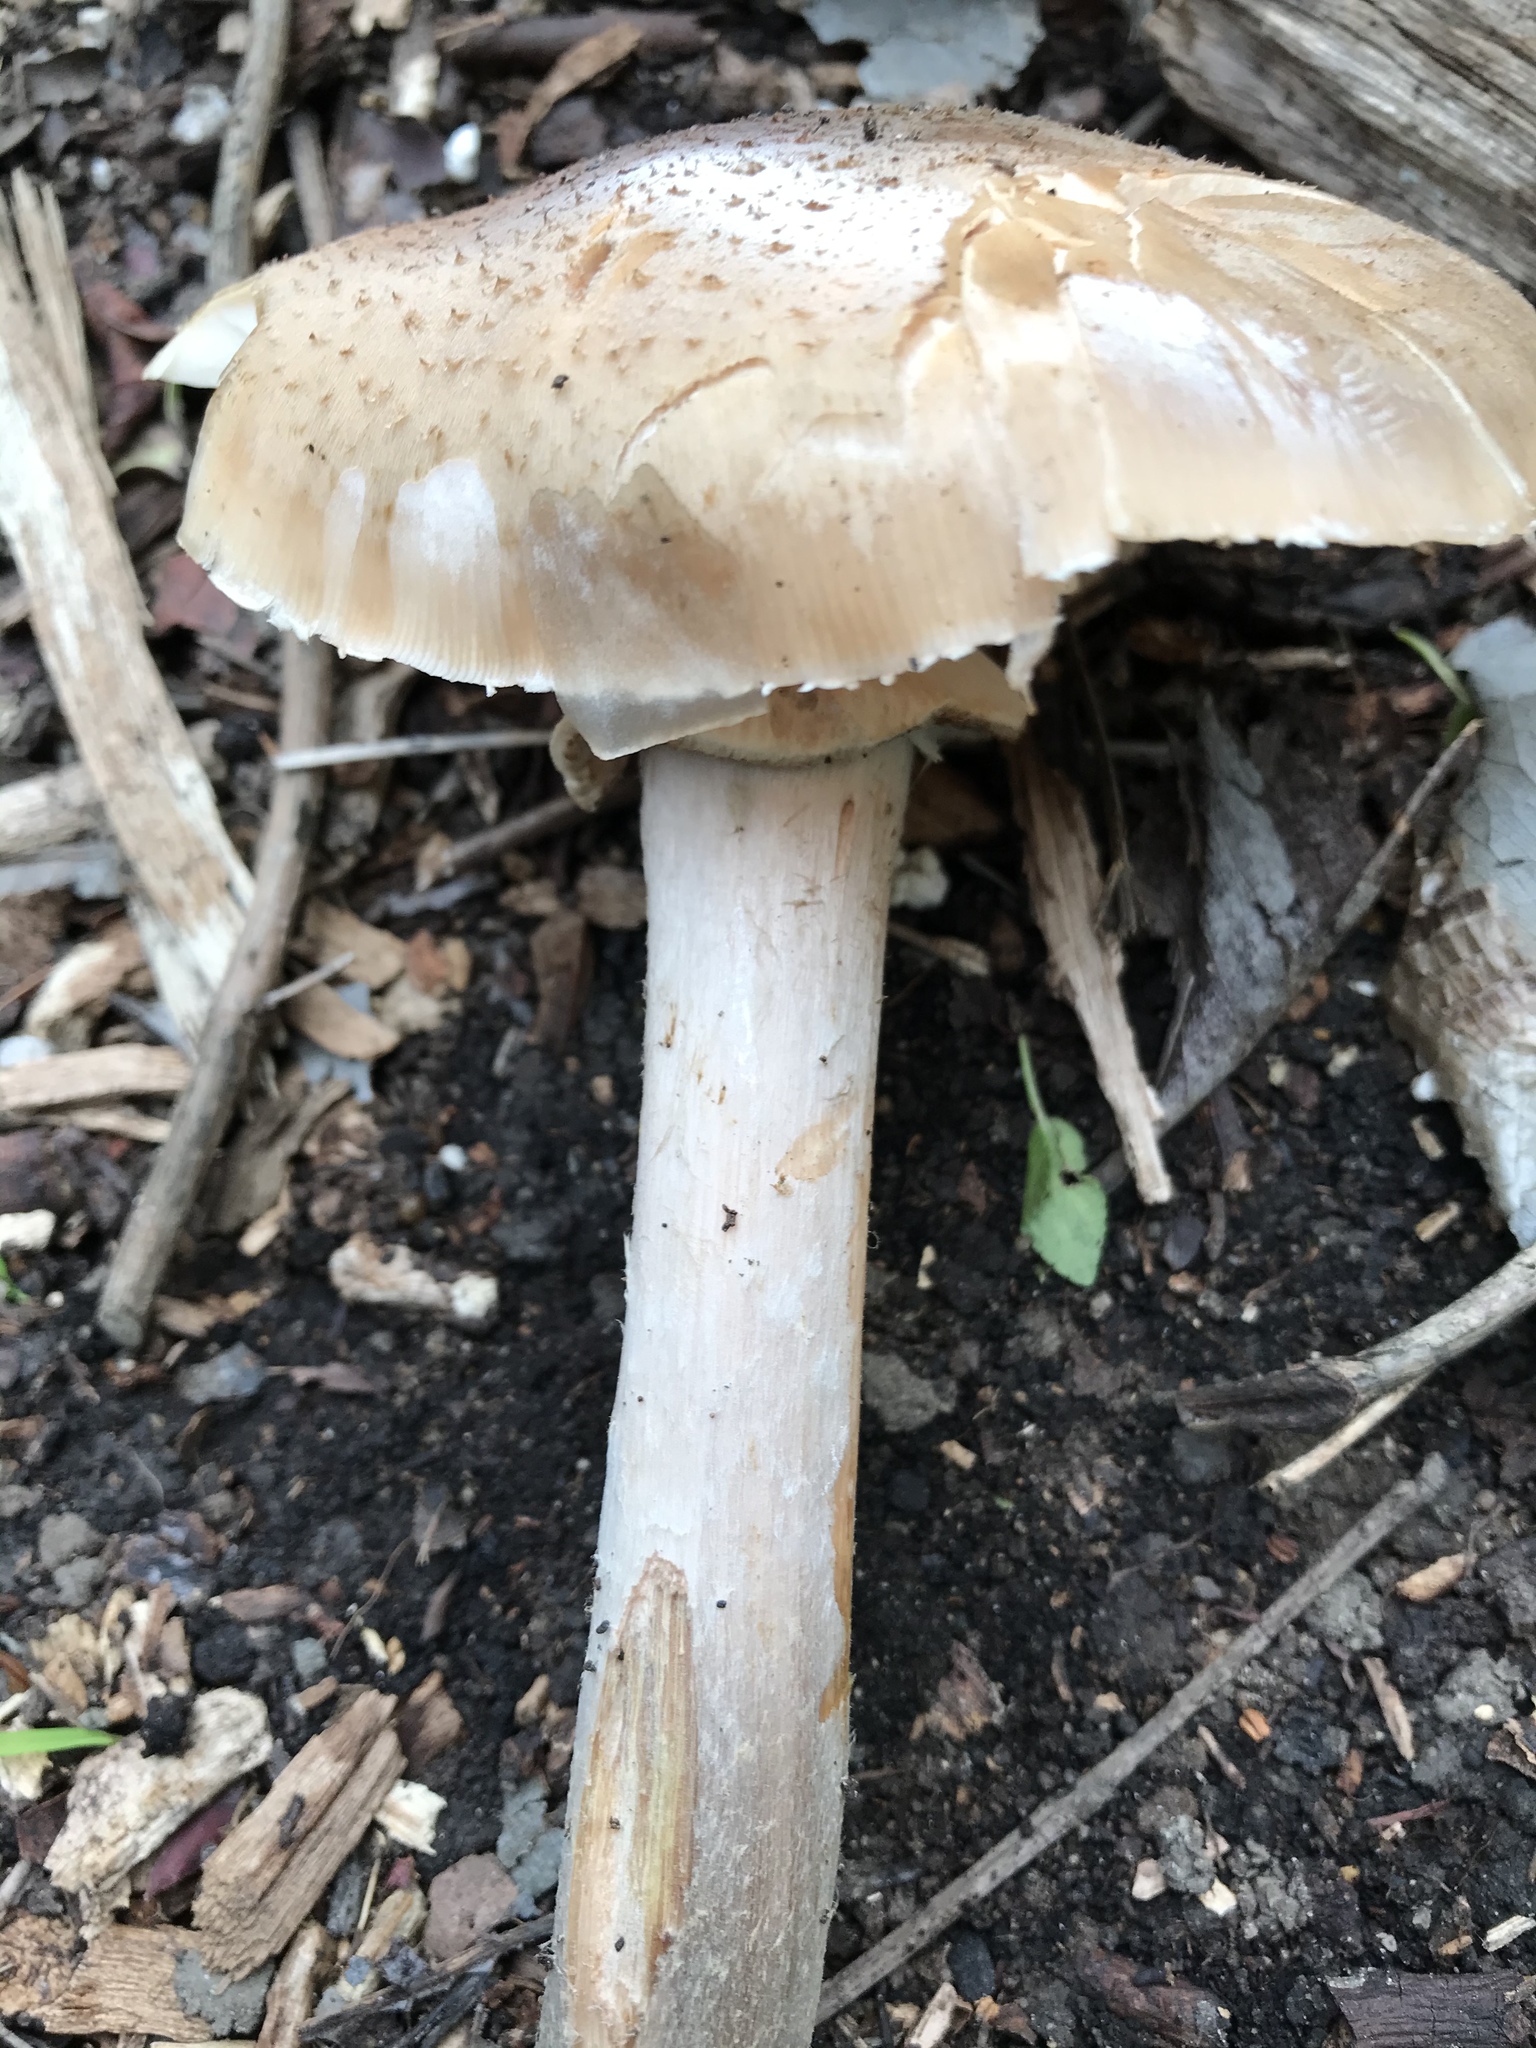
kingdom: Fungi
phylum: Basidiomycota
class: Agaricomycetes
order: Agaricales
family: Physalacriaceae
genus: Armillaria
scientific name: Armillaria mellea
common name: Honey fungus
